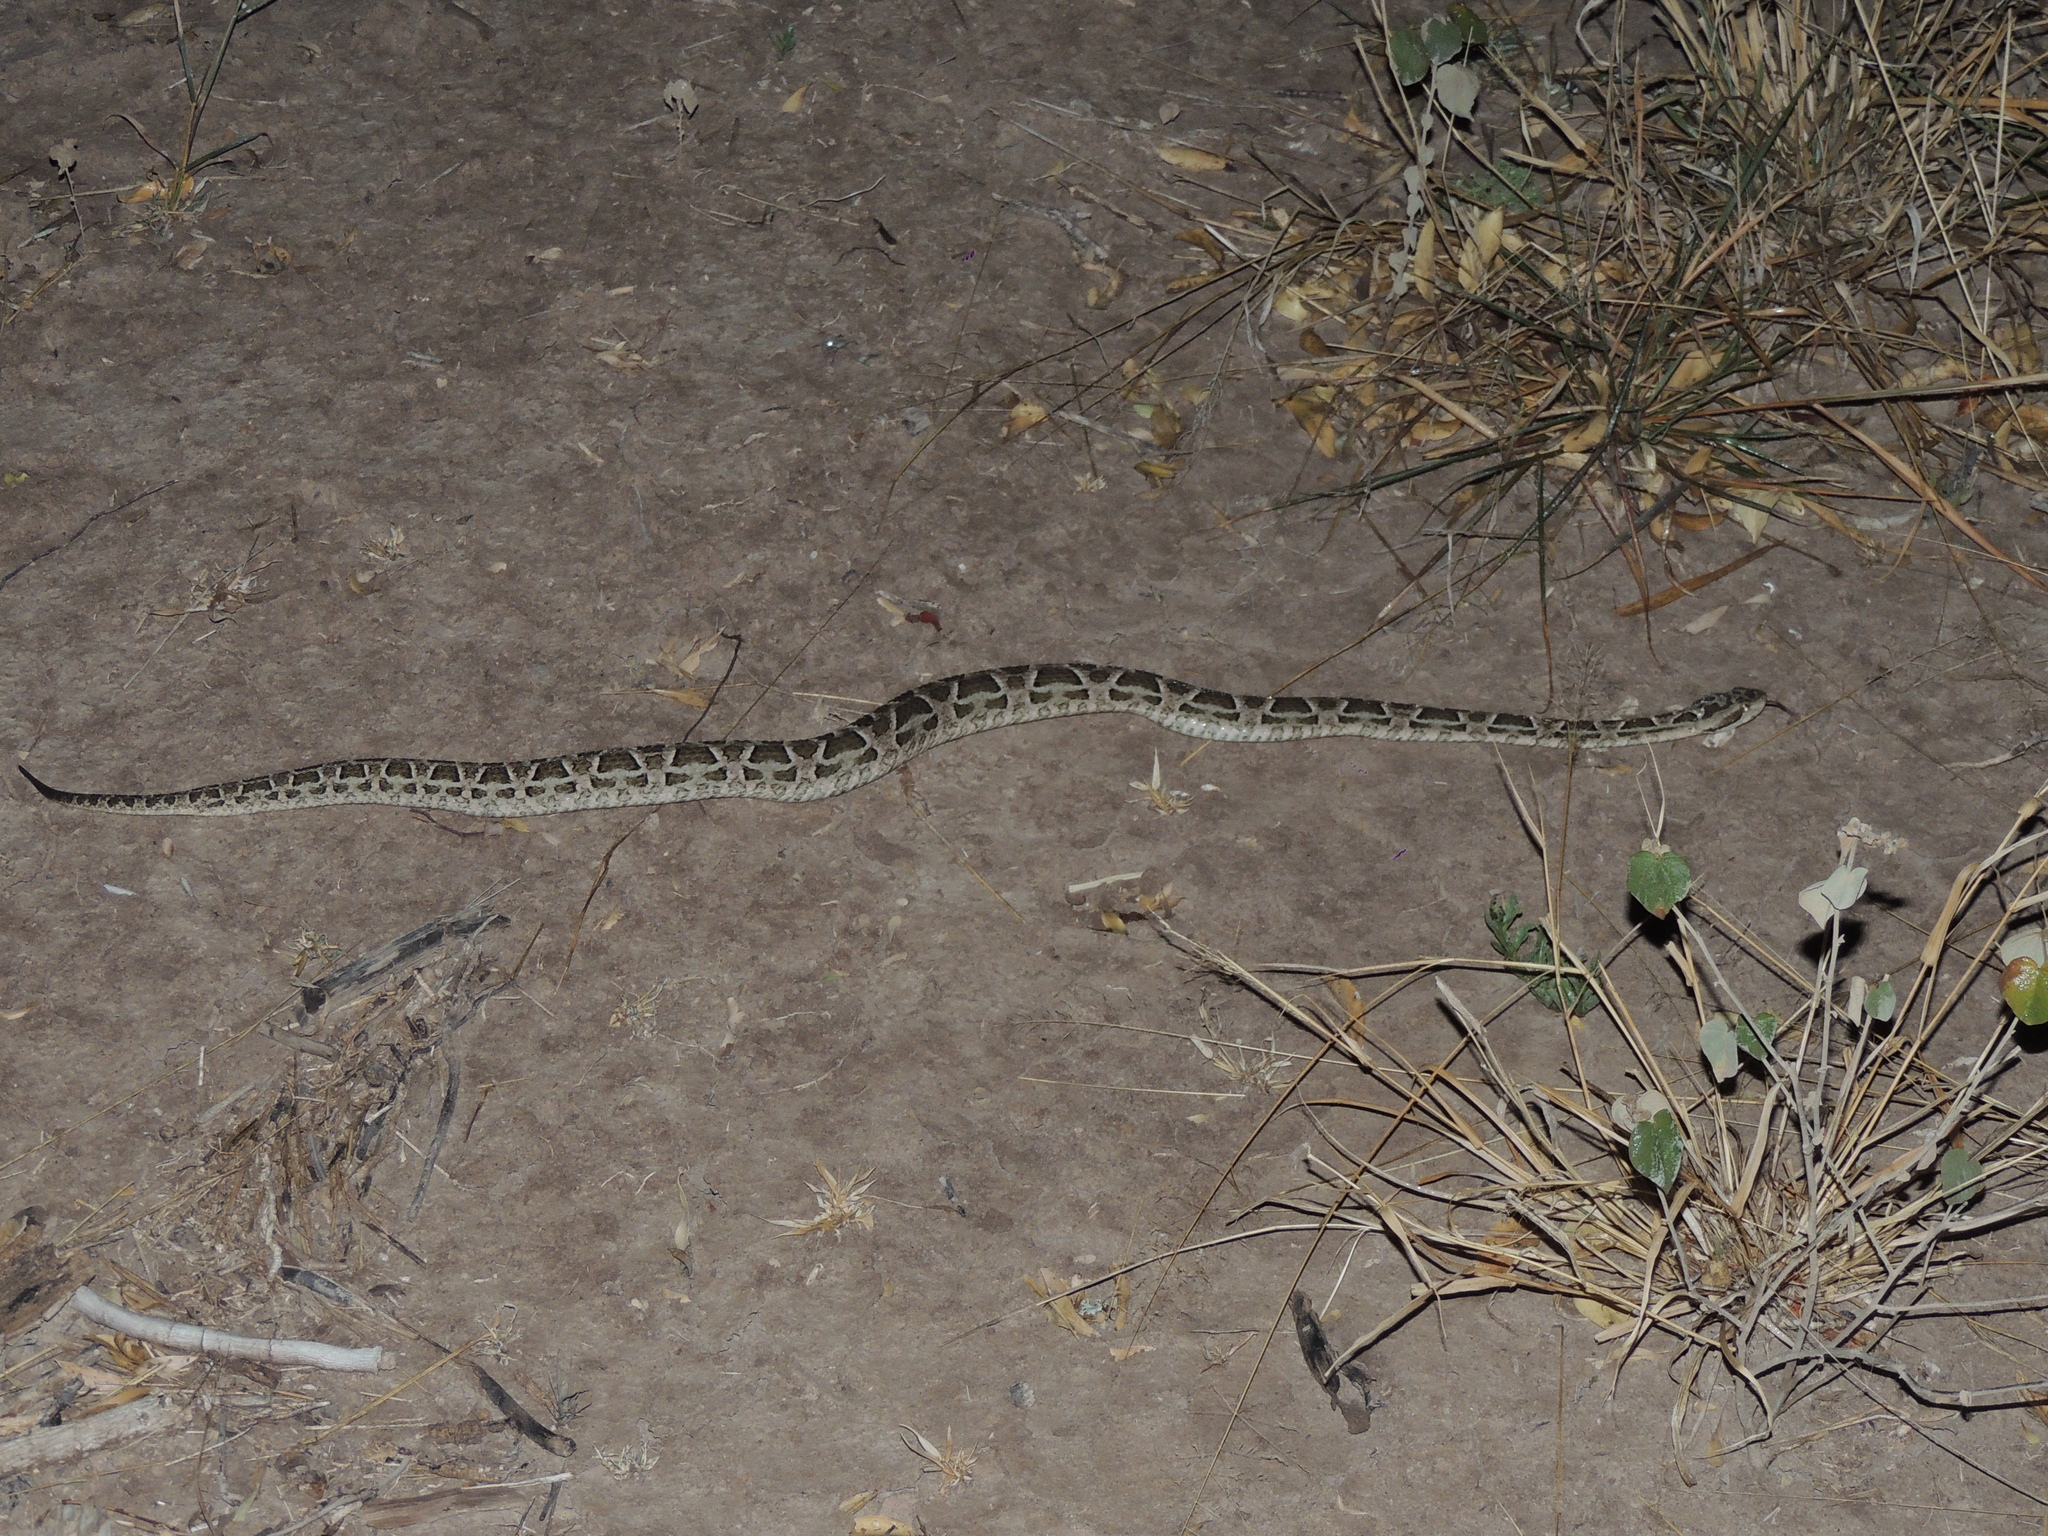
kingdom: Animalia
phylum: Chordata
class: Squamata
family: Viperidae
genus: Bothrops
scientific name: Bothrops diporus
